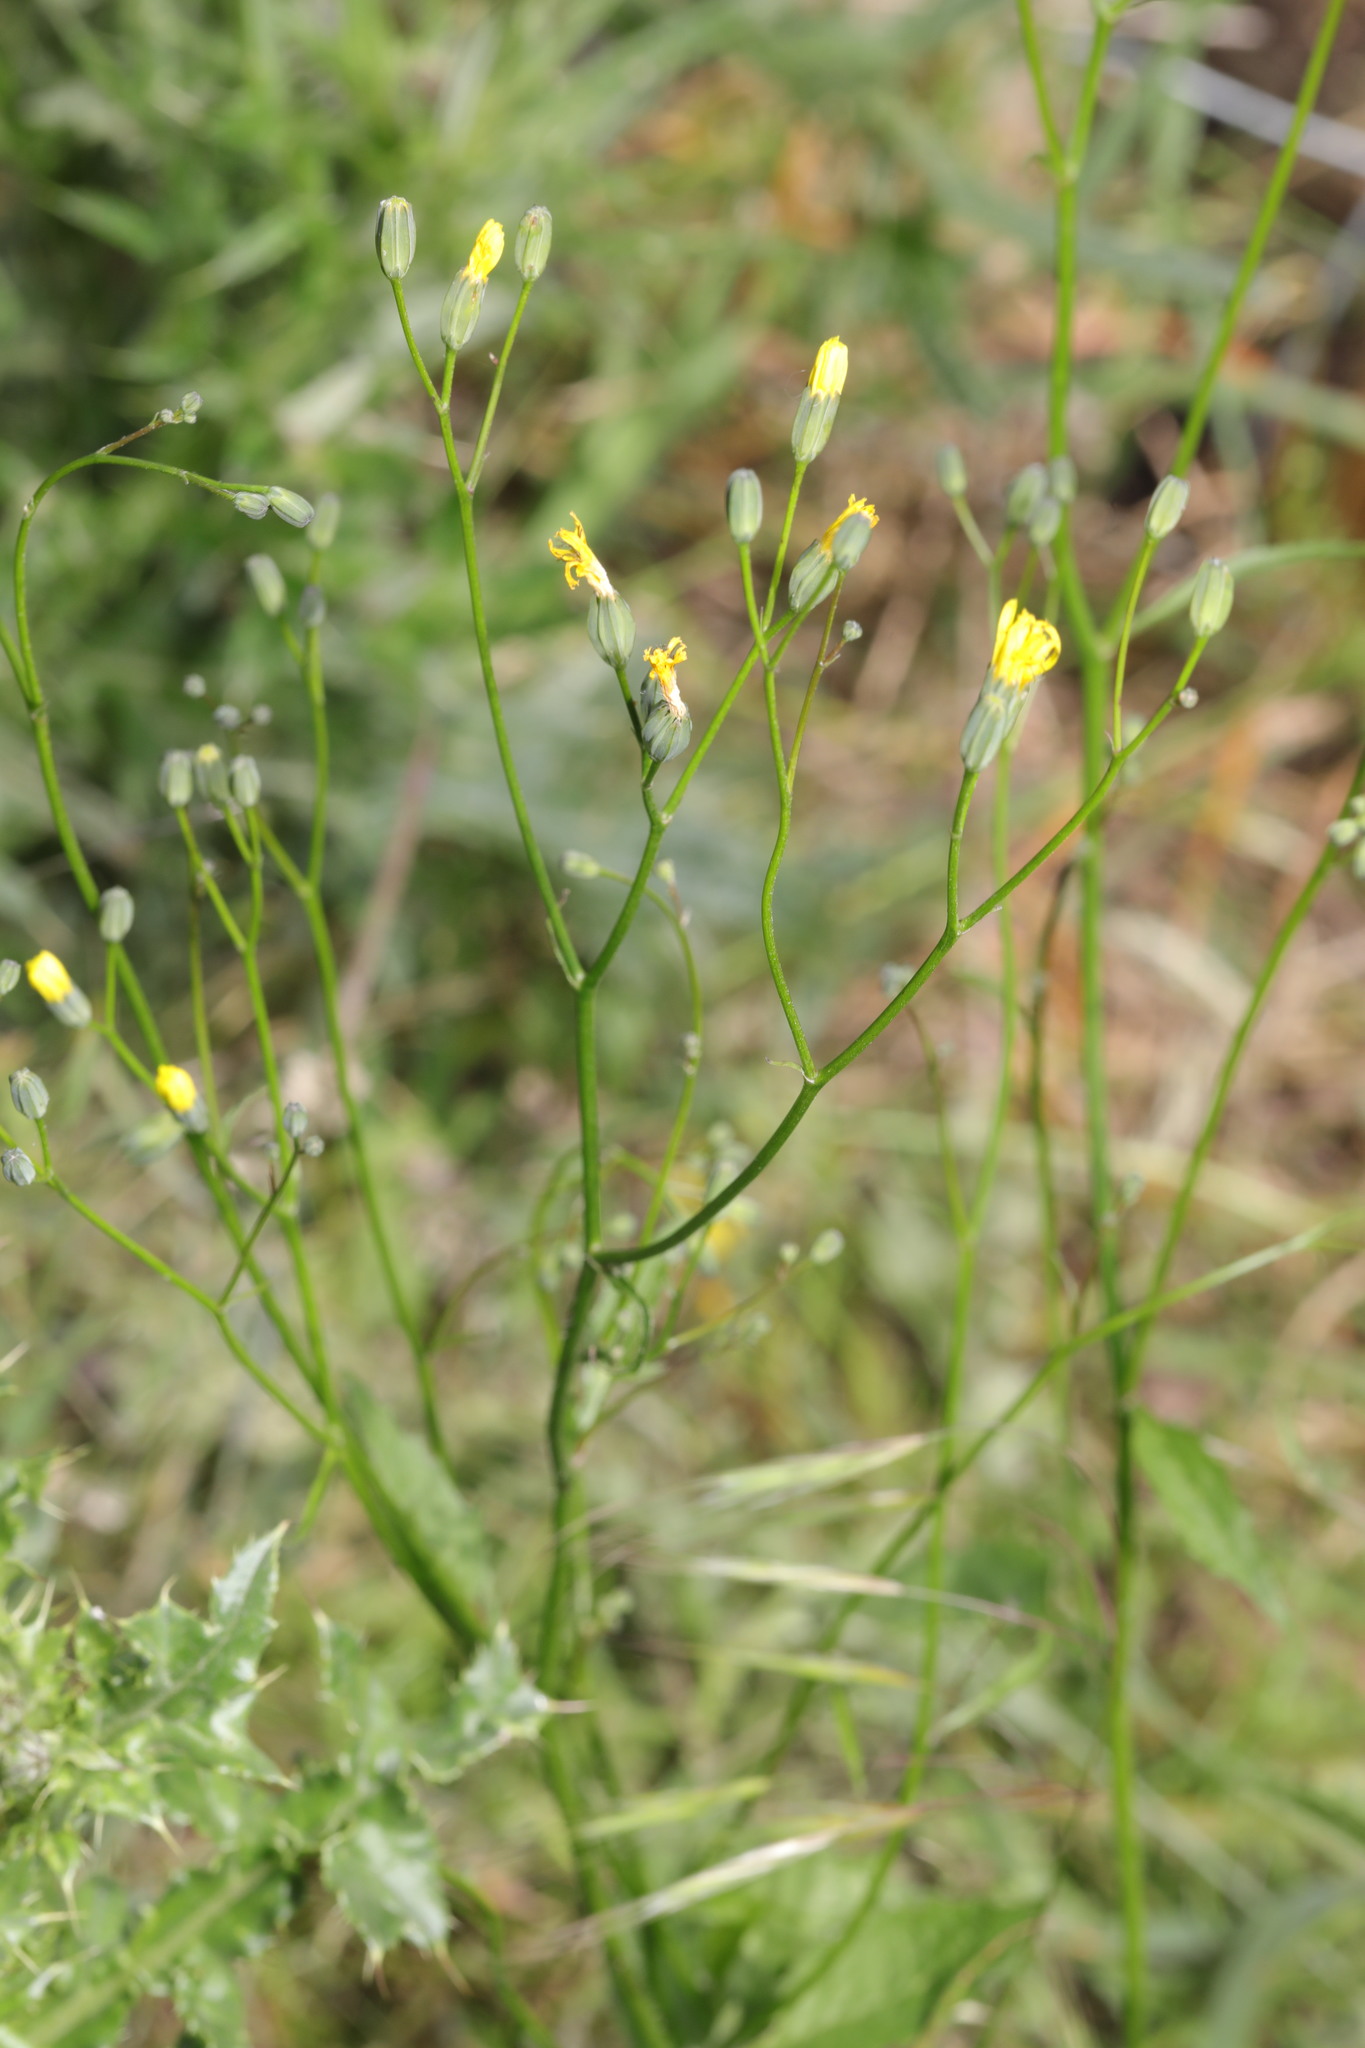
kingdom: Plantae
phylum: Tracheophyta
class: Magnoliopsida
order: Asterales
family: Asteraceae
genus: Lapsana
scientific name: Lapsana communis
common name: Nipplewort
